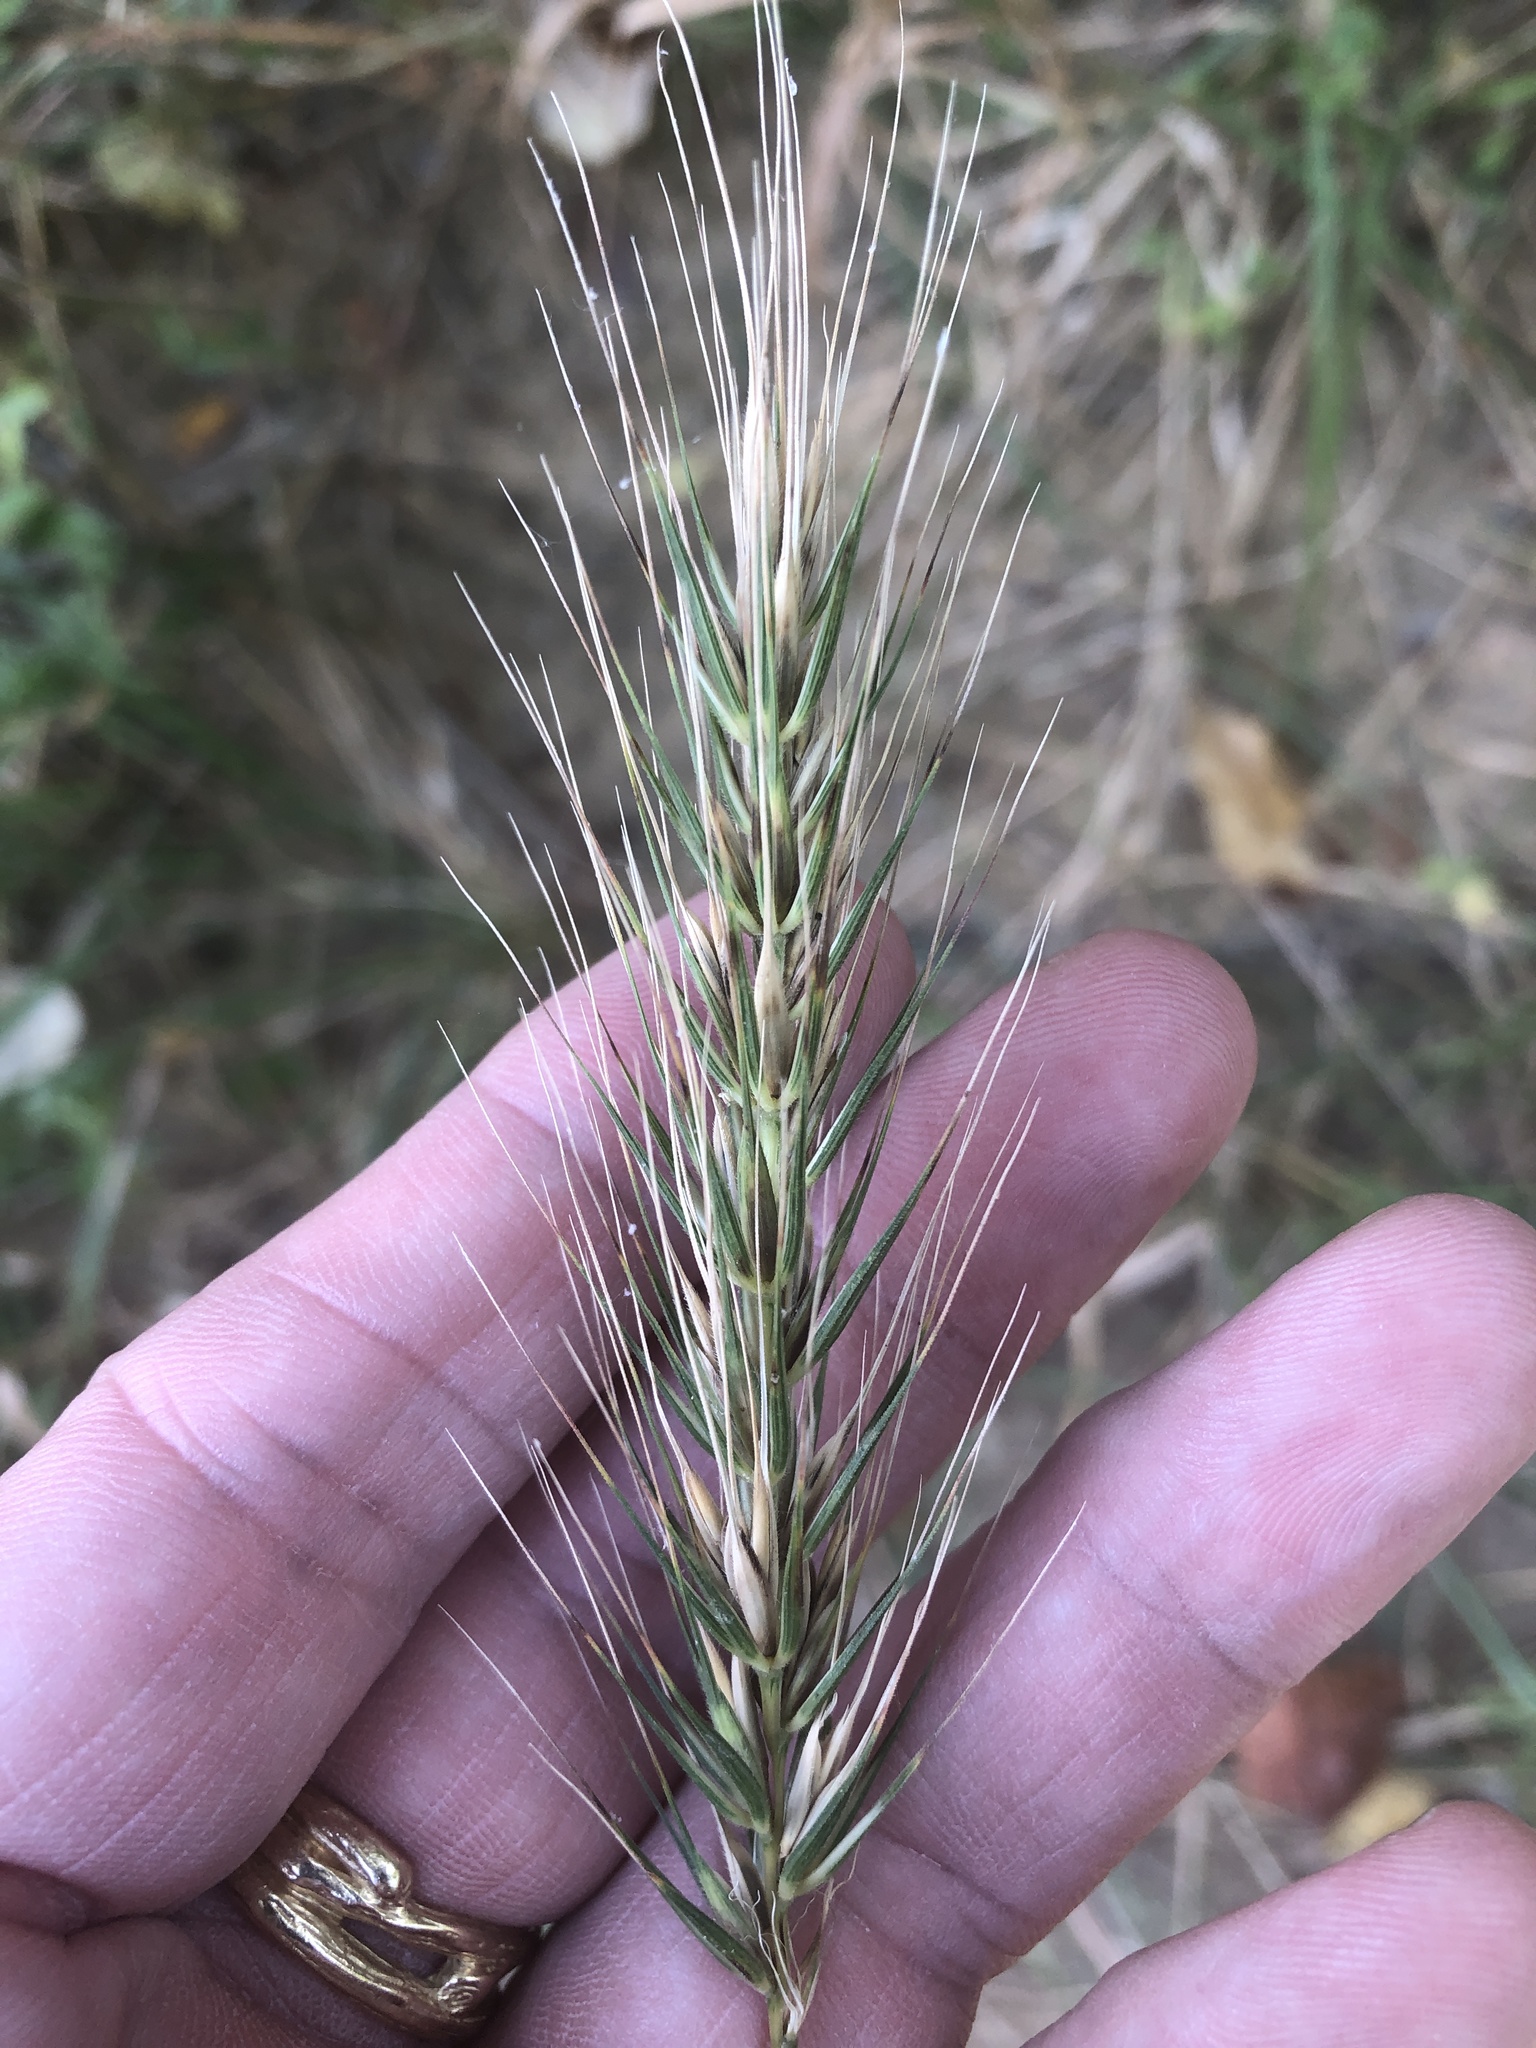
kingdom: Plantae
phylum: Tracheophyta
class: Liliopsida
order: Poales
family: Poaceae
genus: Elymus
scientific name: Elymus virginicus
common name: Common eastern wildrye
